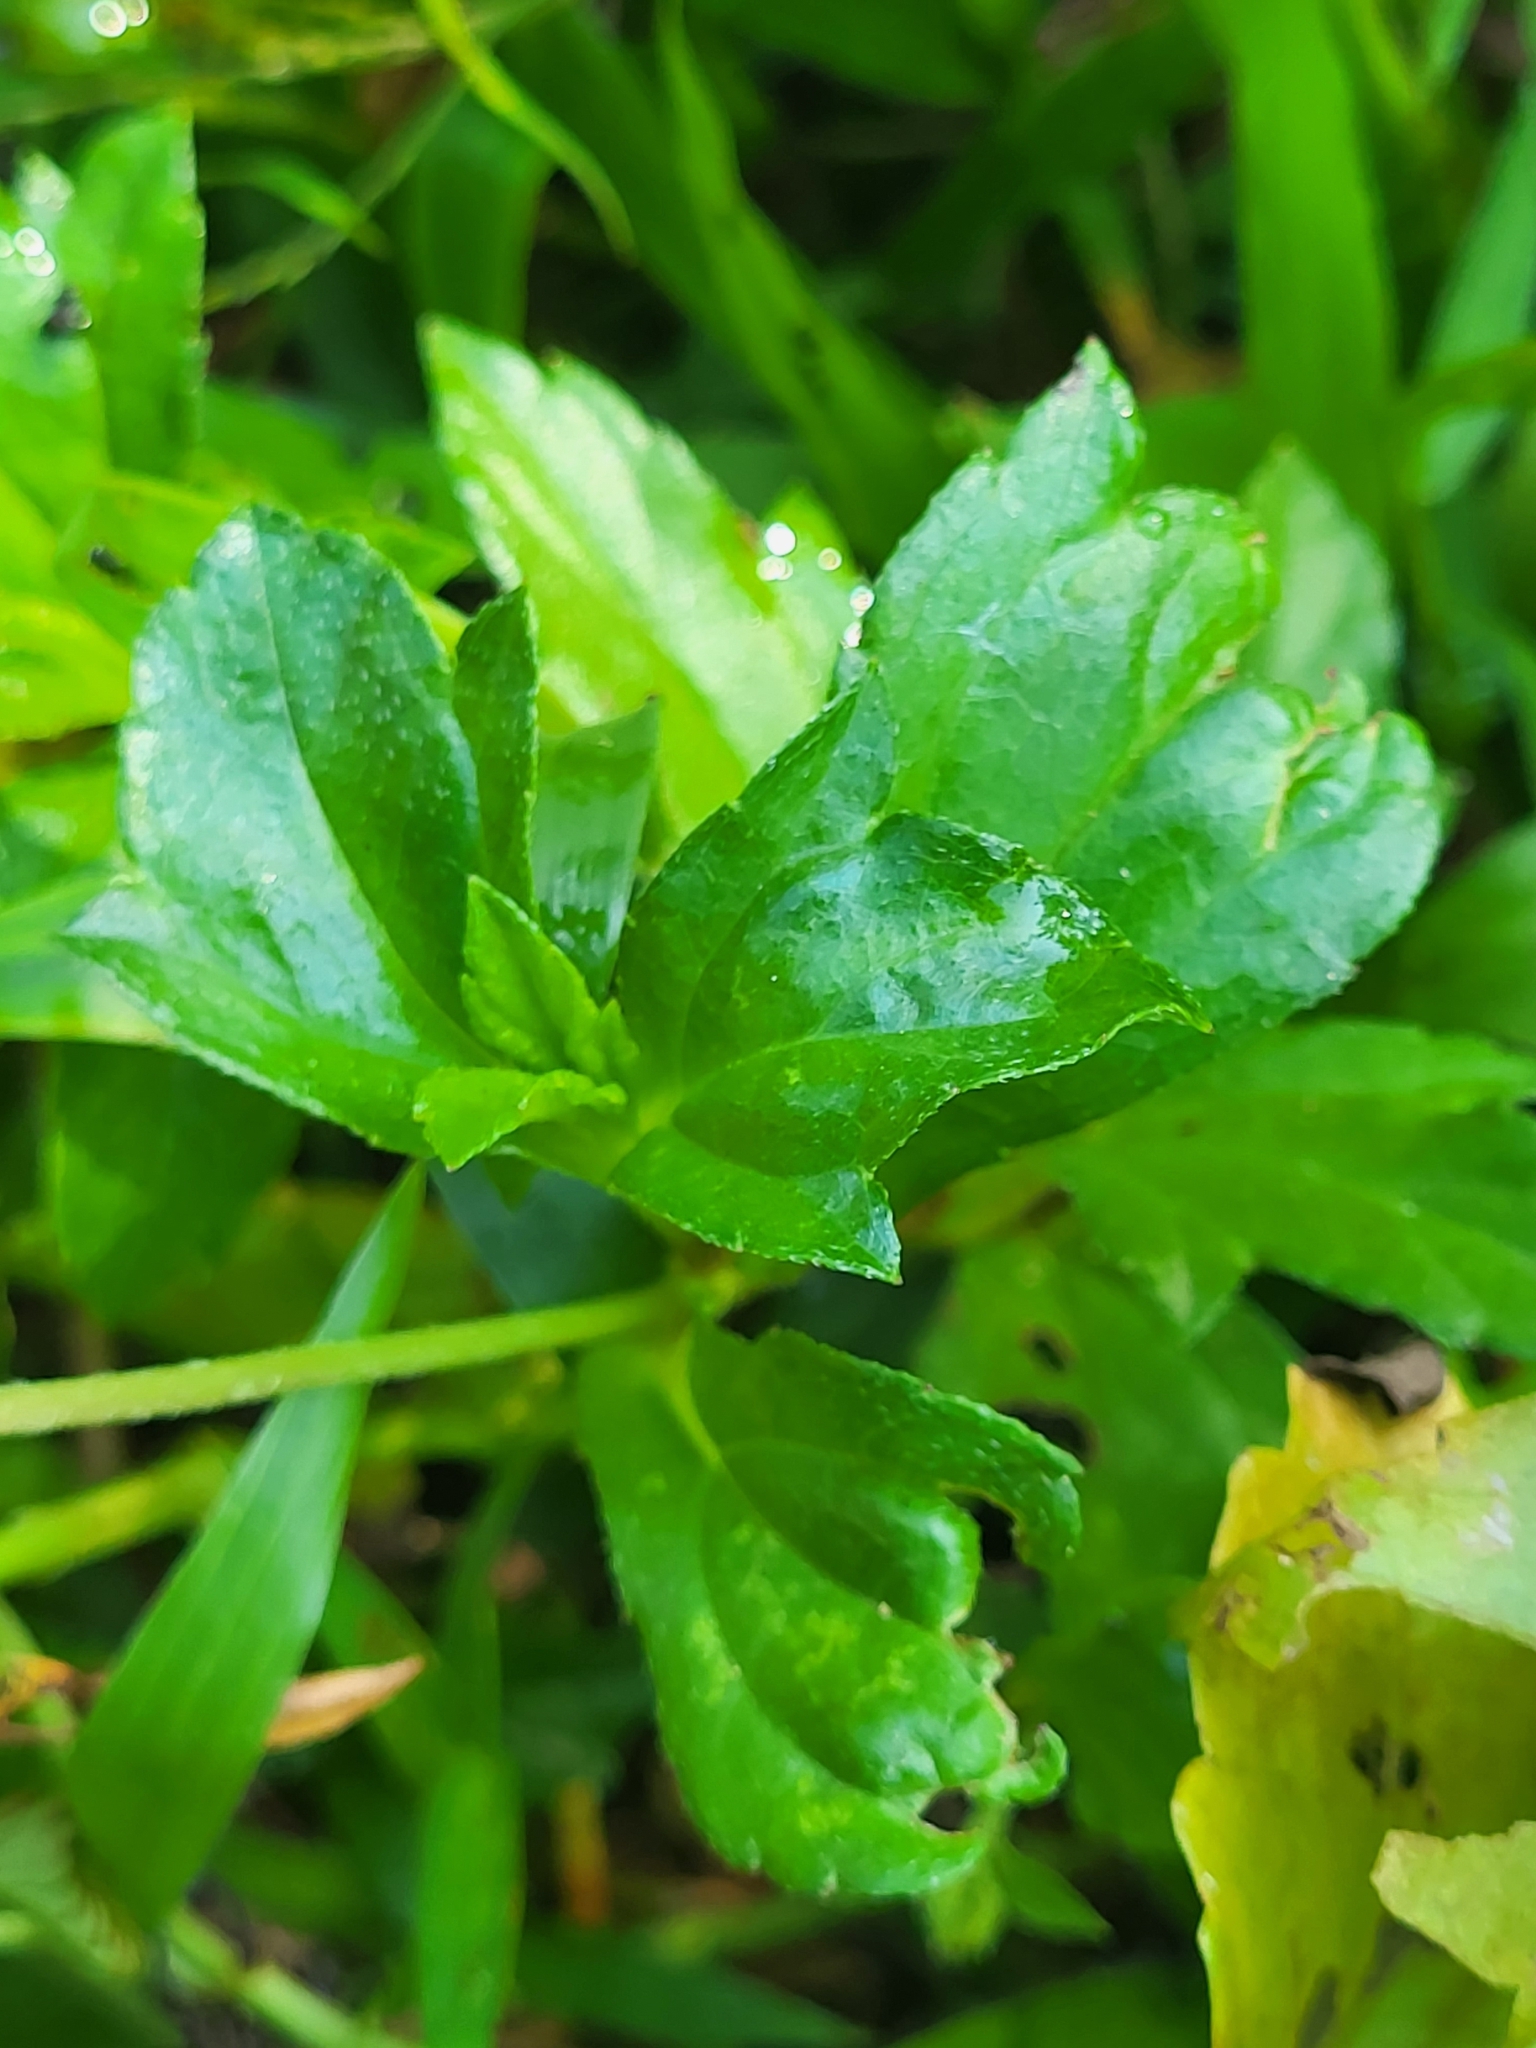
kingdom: Plantae
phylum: Tracheophyta
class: Magnoliopsida
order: Asterales
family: Asteraceae
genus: Sphagneticola
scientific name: Sphagneticola trilobata
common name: Bay biscayne creeping-oxeye
